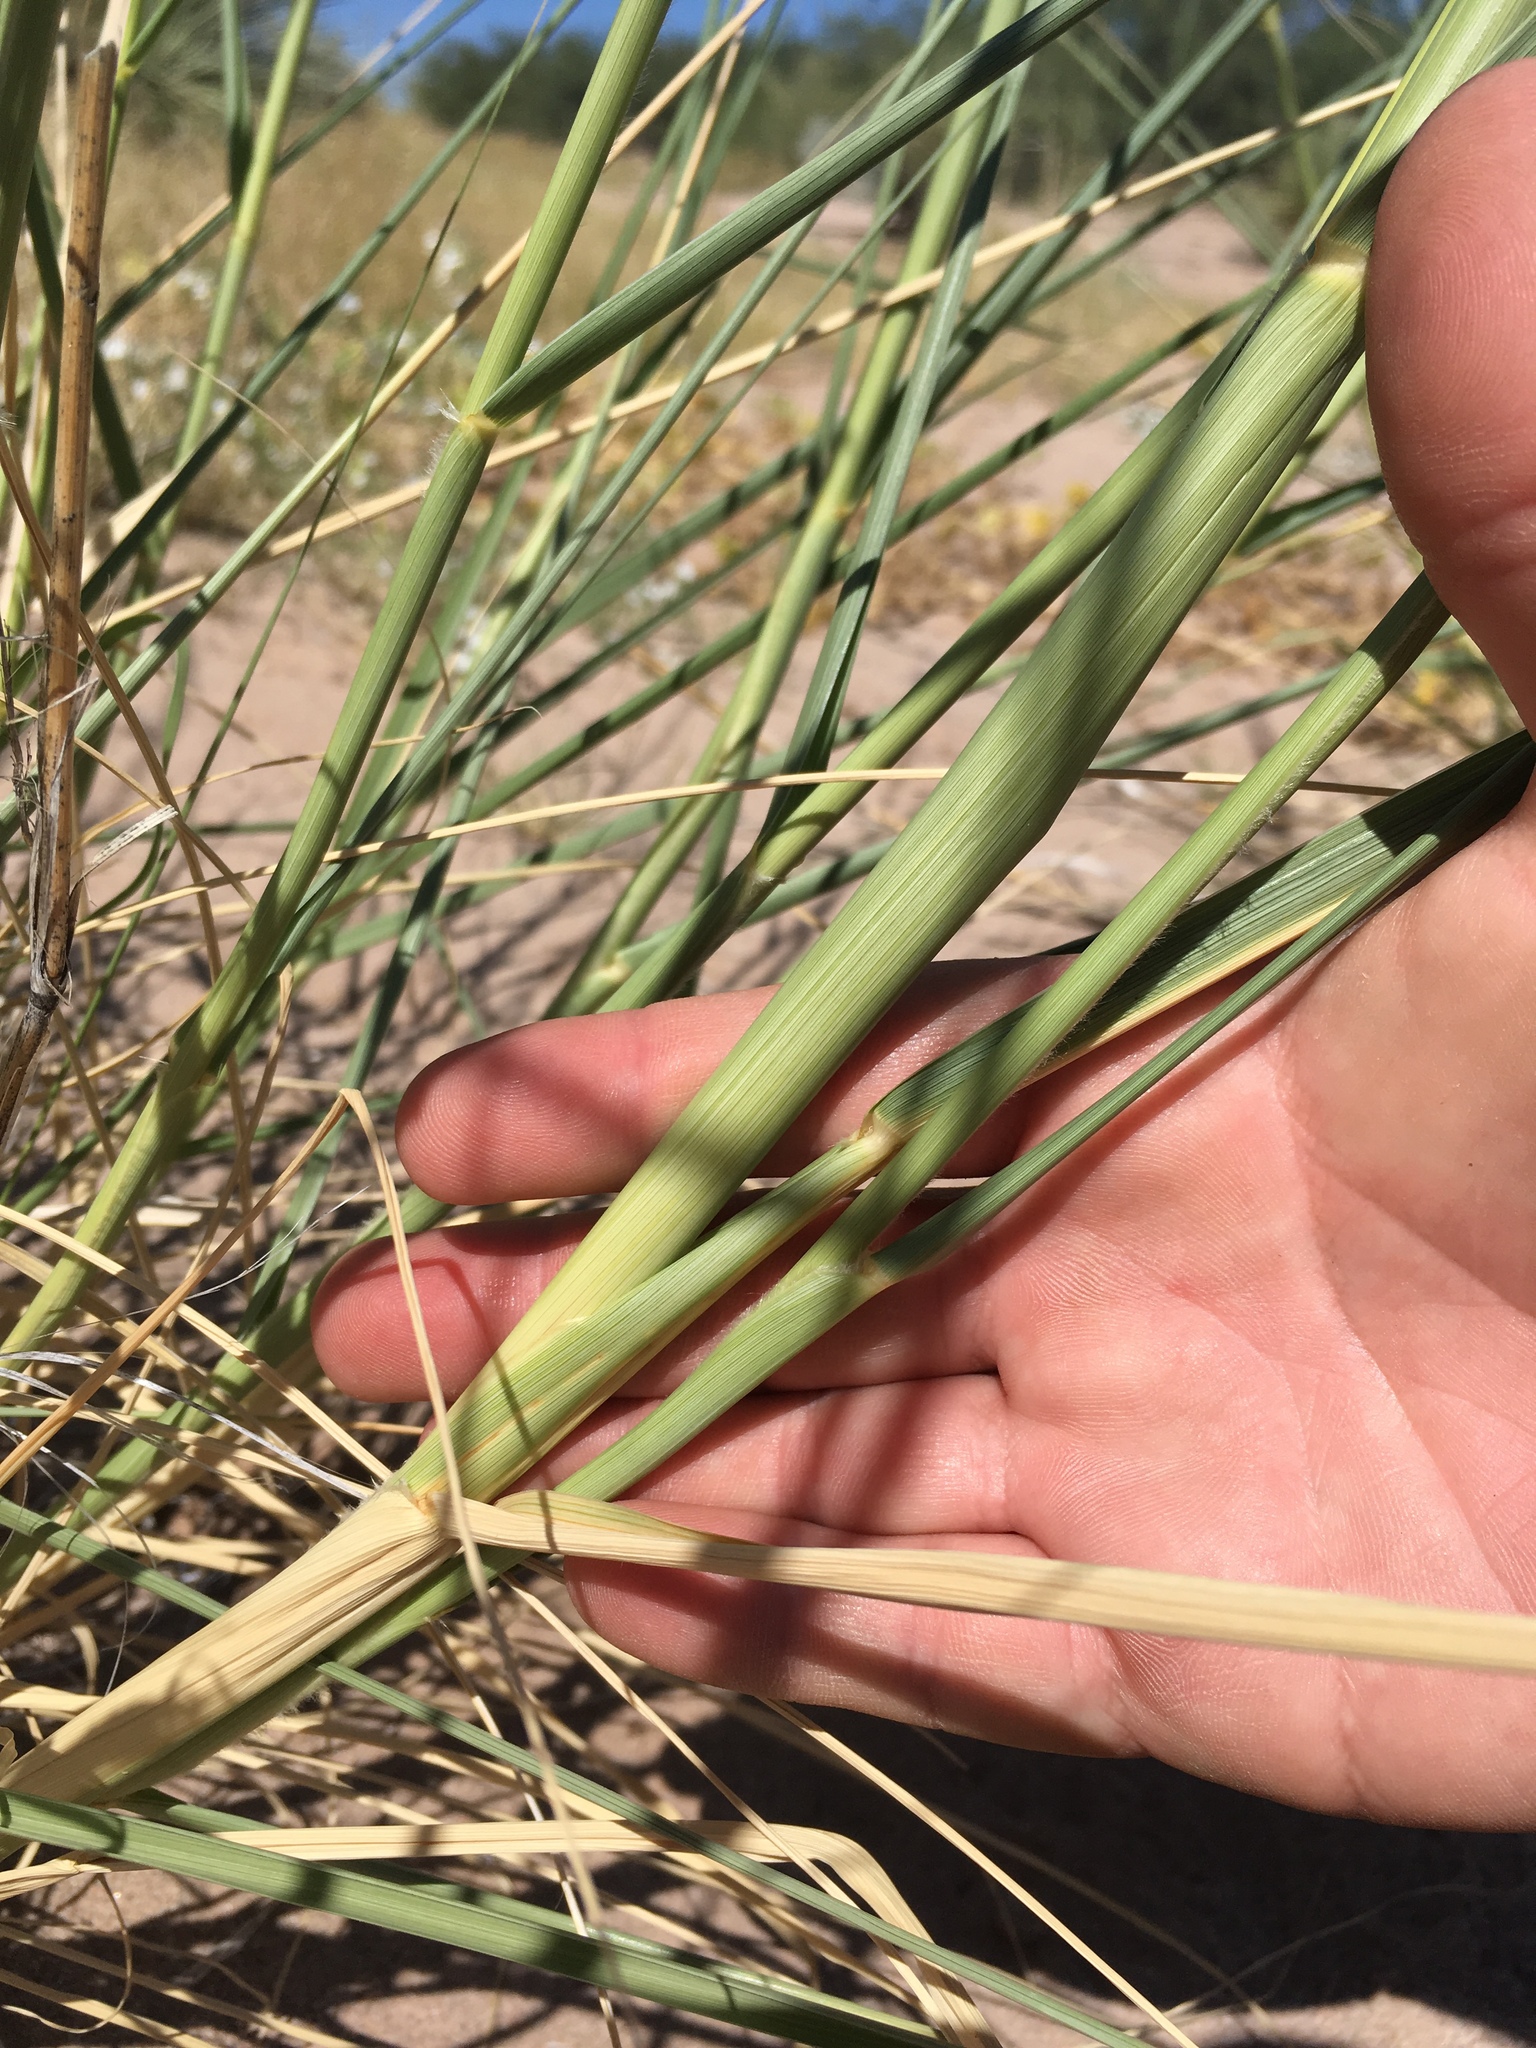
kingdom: Plantae
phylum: Tracheophyta
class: Liliopsida
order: Poales
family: Poaceae
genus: Sporobolus
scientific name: Sporobolus giganteus
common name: Giant dropseed
